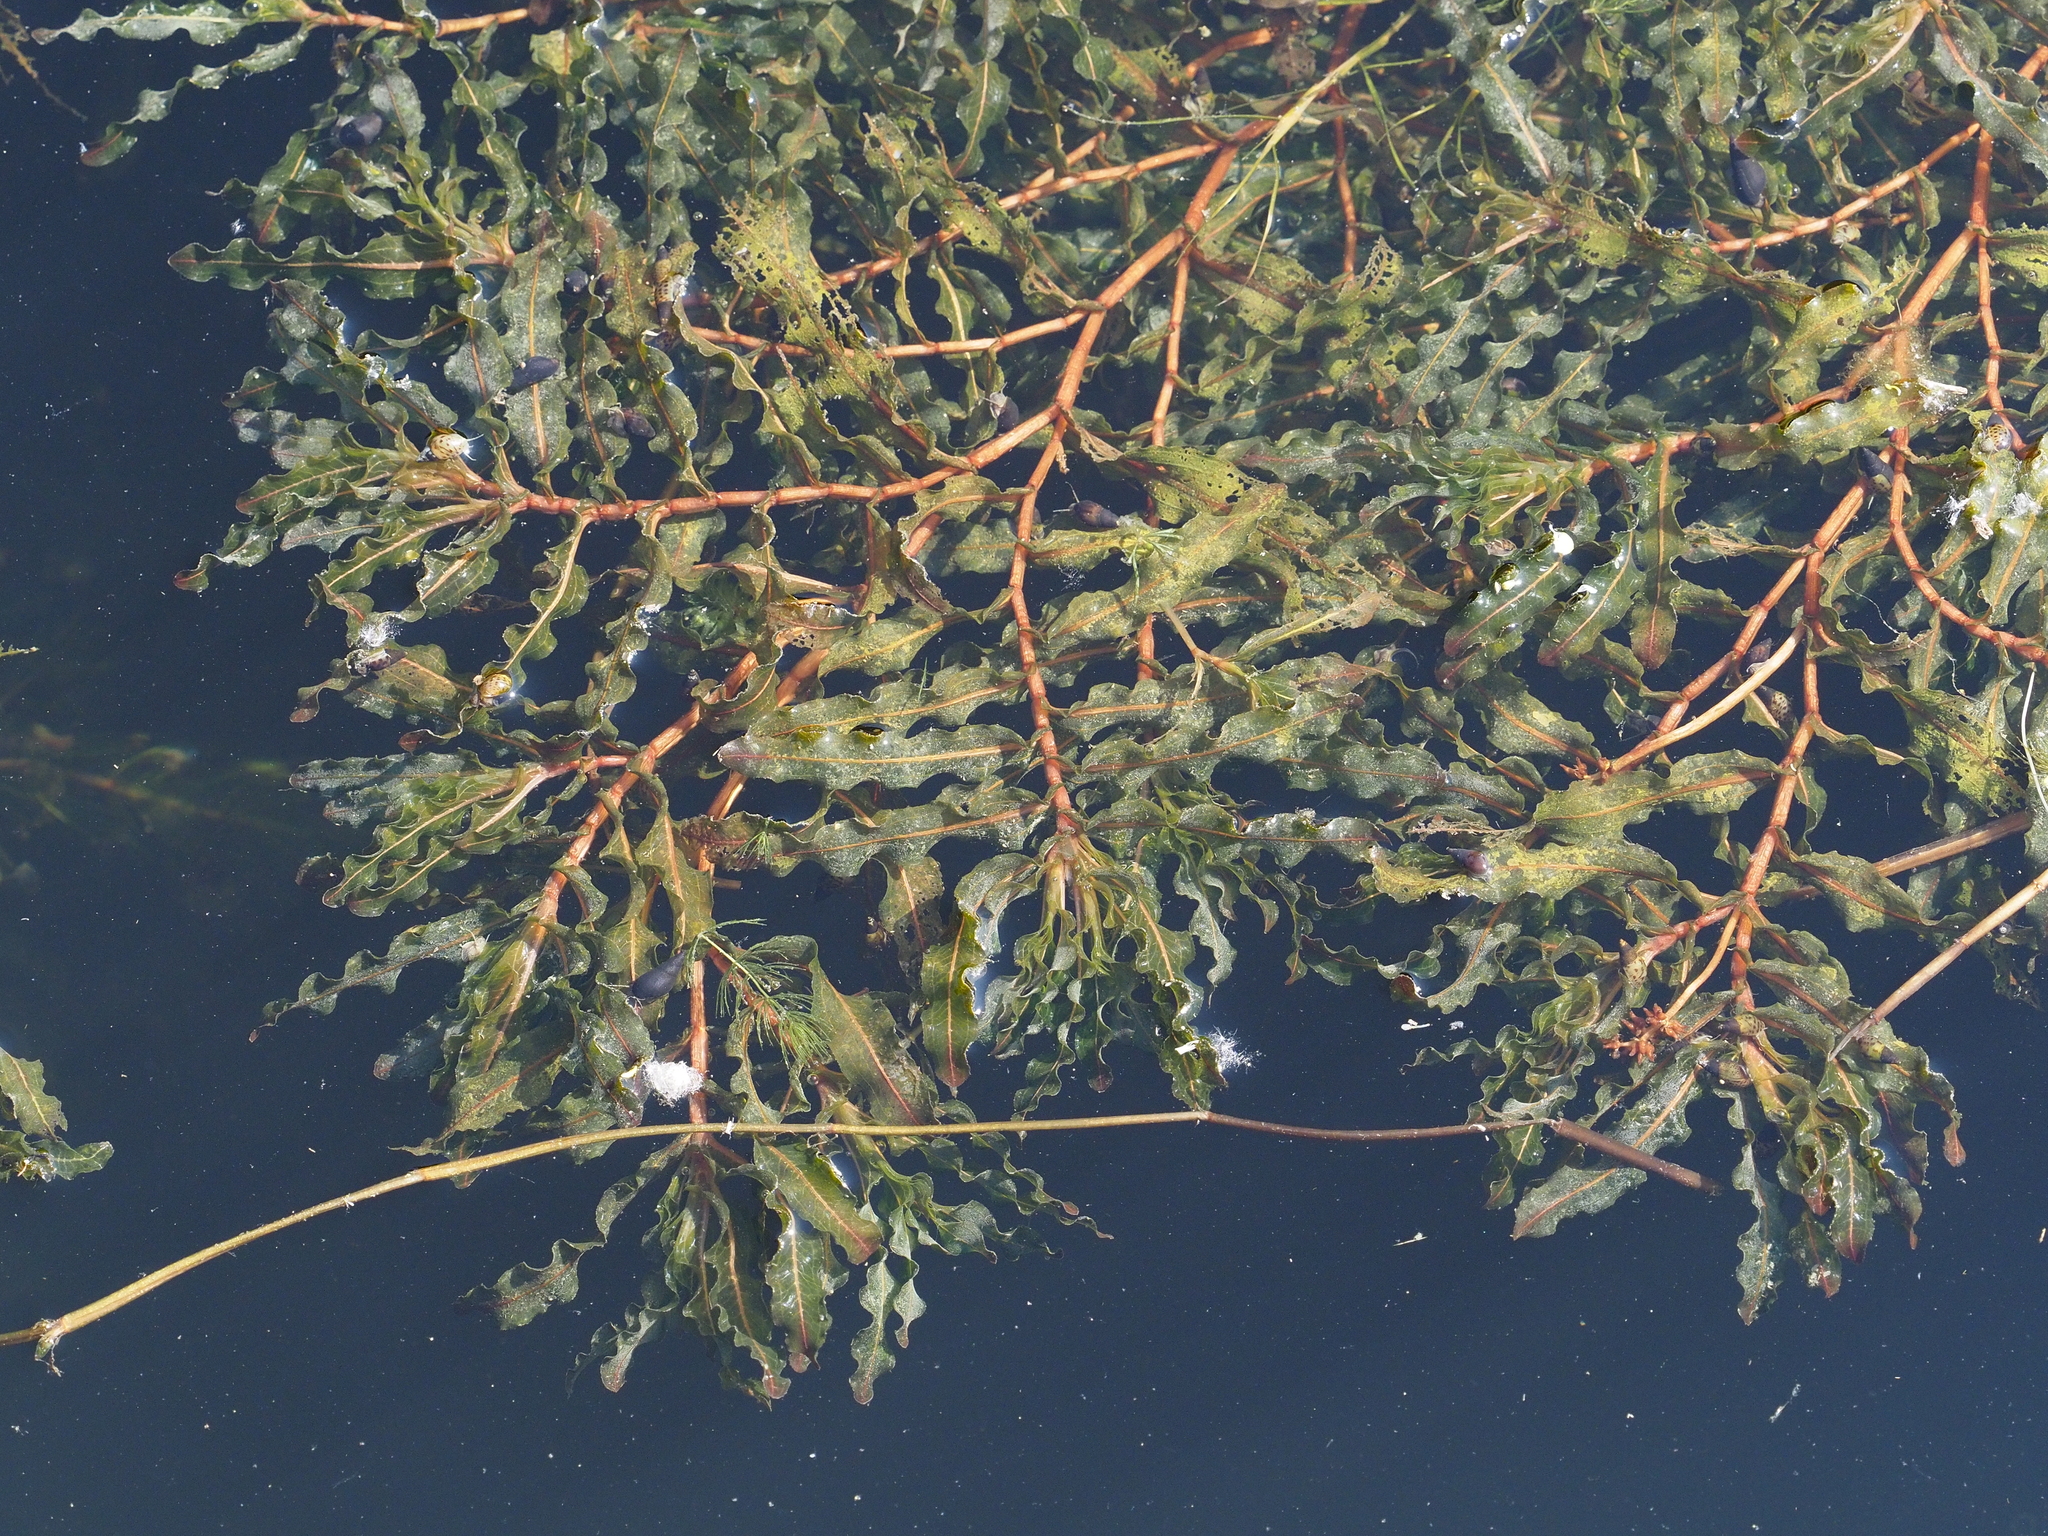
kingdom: Plantae
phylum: Tracheophyta
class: Liliopsida
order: Alismatales
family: Potamogetonaceae
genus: Potamogeton
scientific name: Potamogeton crispus
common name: Curled pondweed
